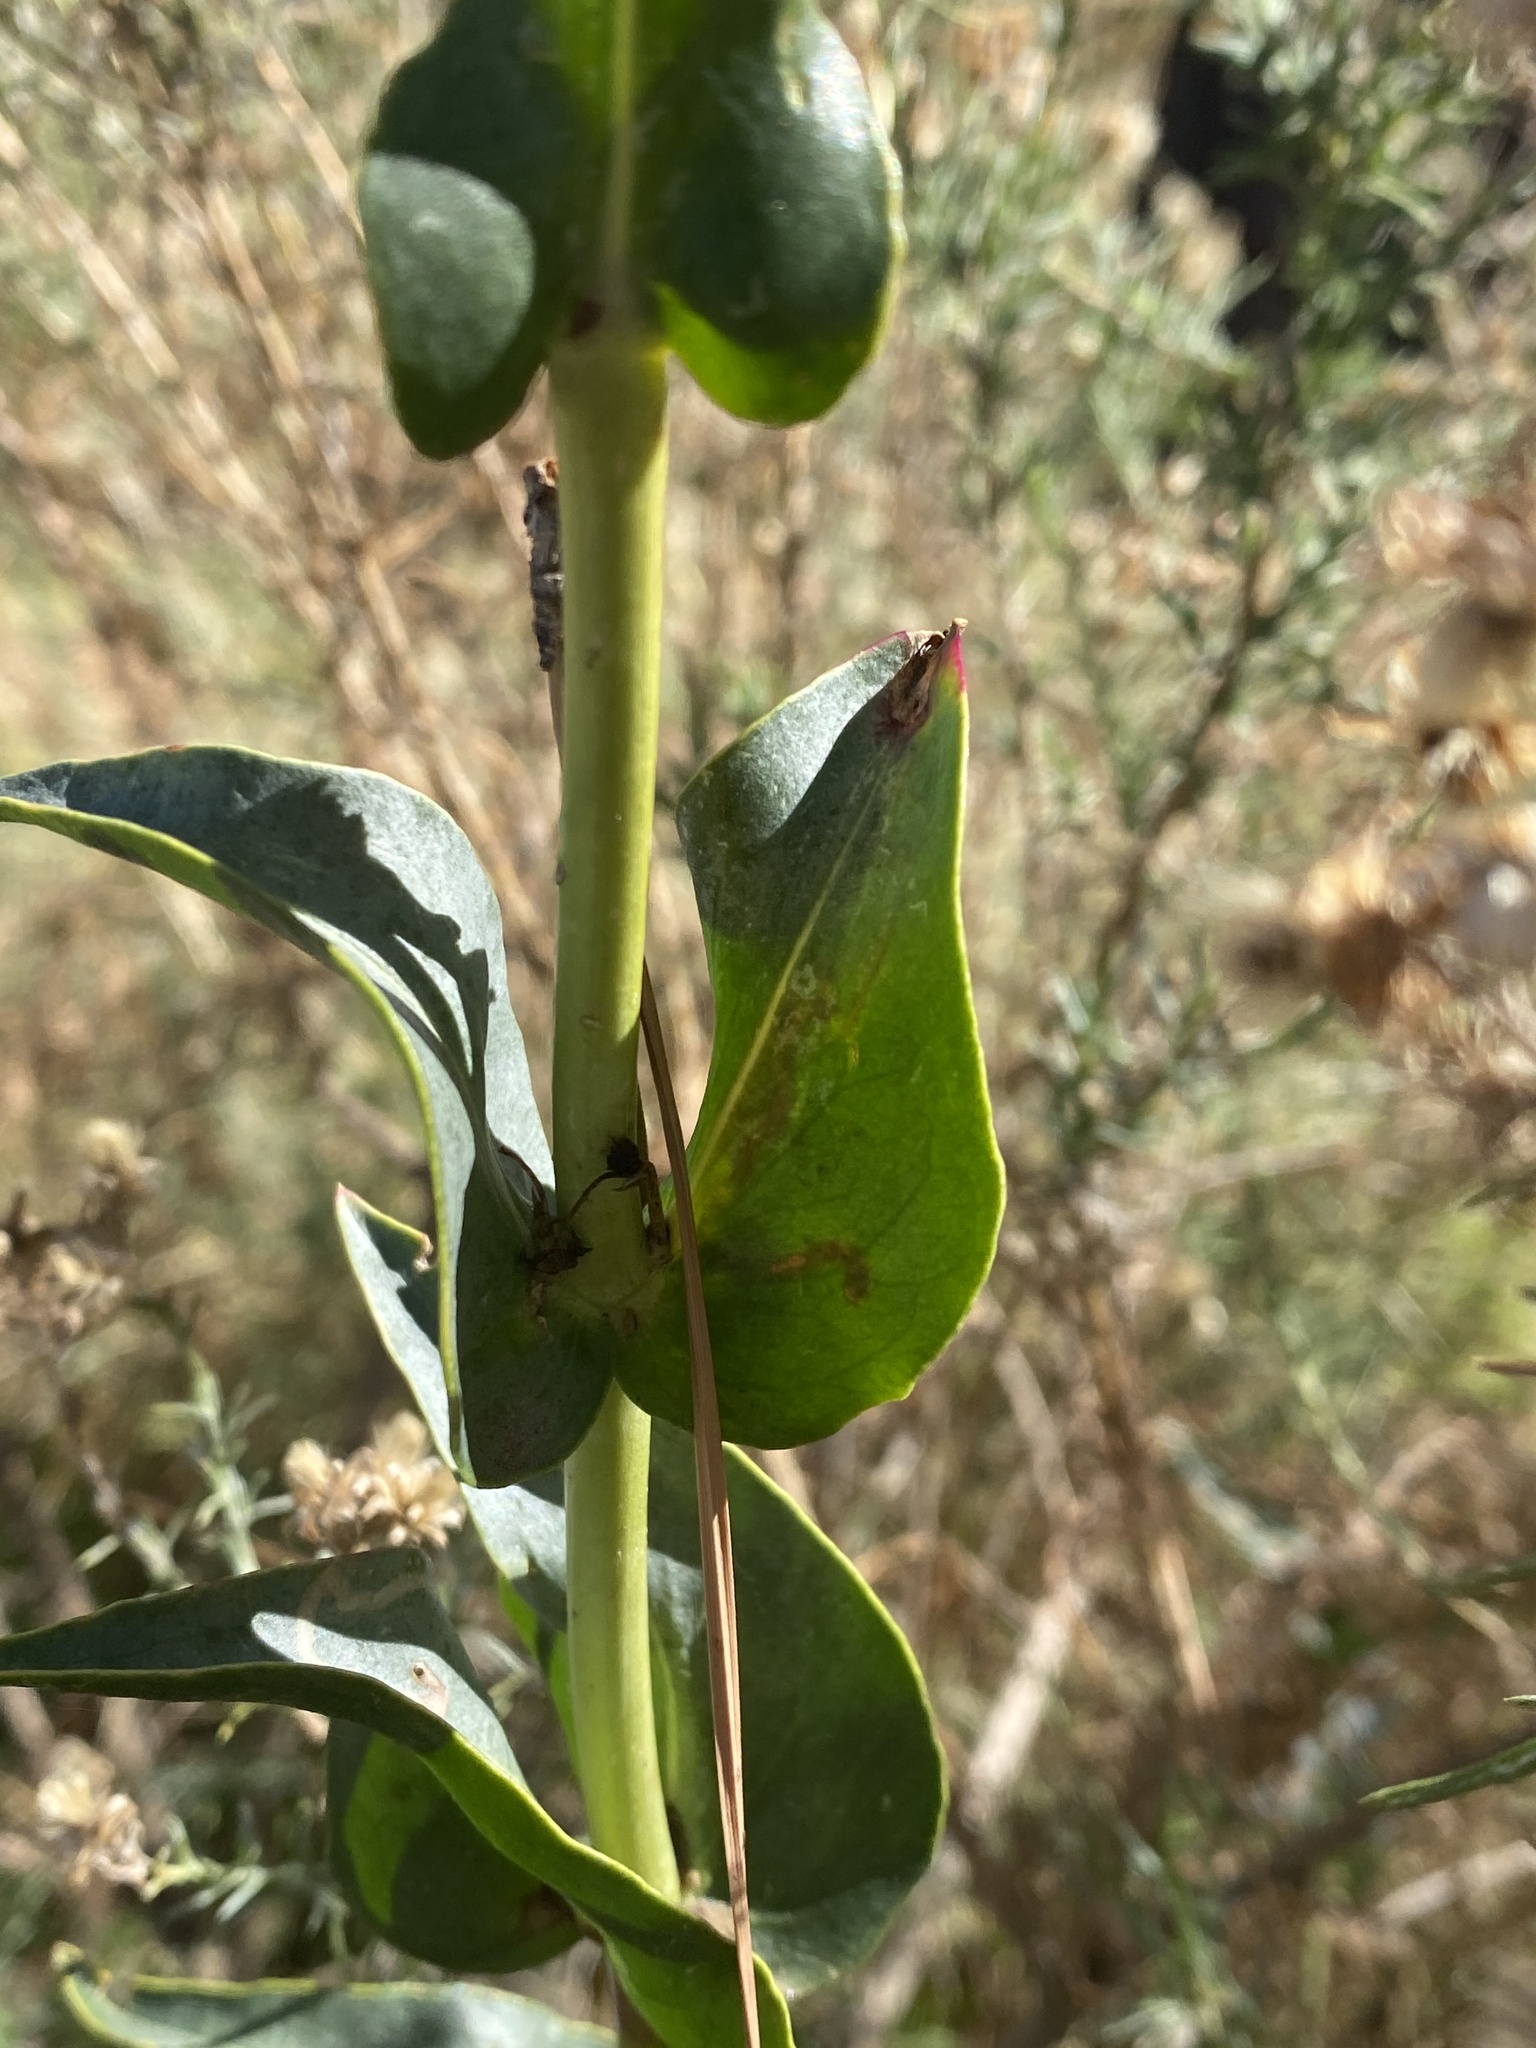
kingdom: Plantae
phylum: Tracheophyta
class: Magnoliopsida
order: Lamiales
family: Plantaginaceae
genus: Penstemon
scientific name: Penstemon centranthifolius
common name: Scarlet bugler
